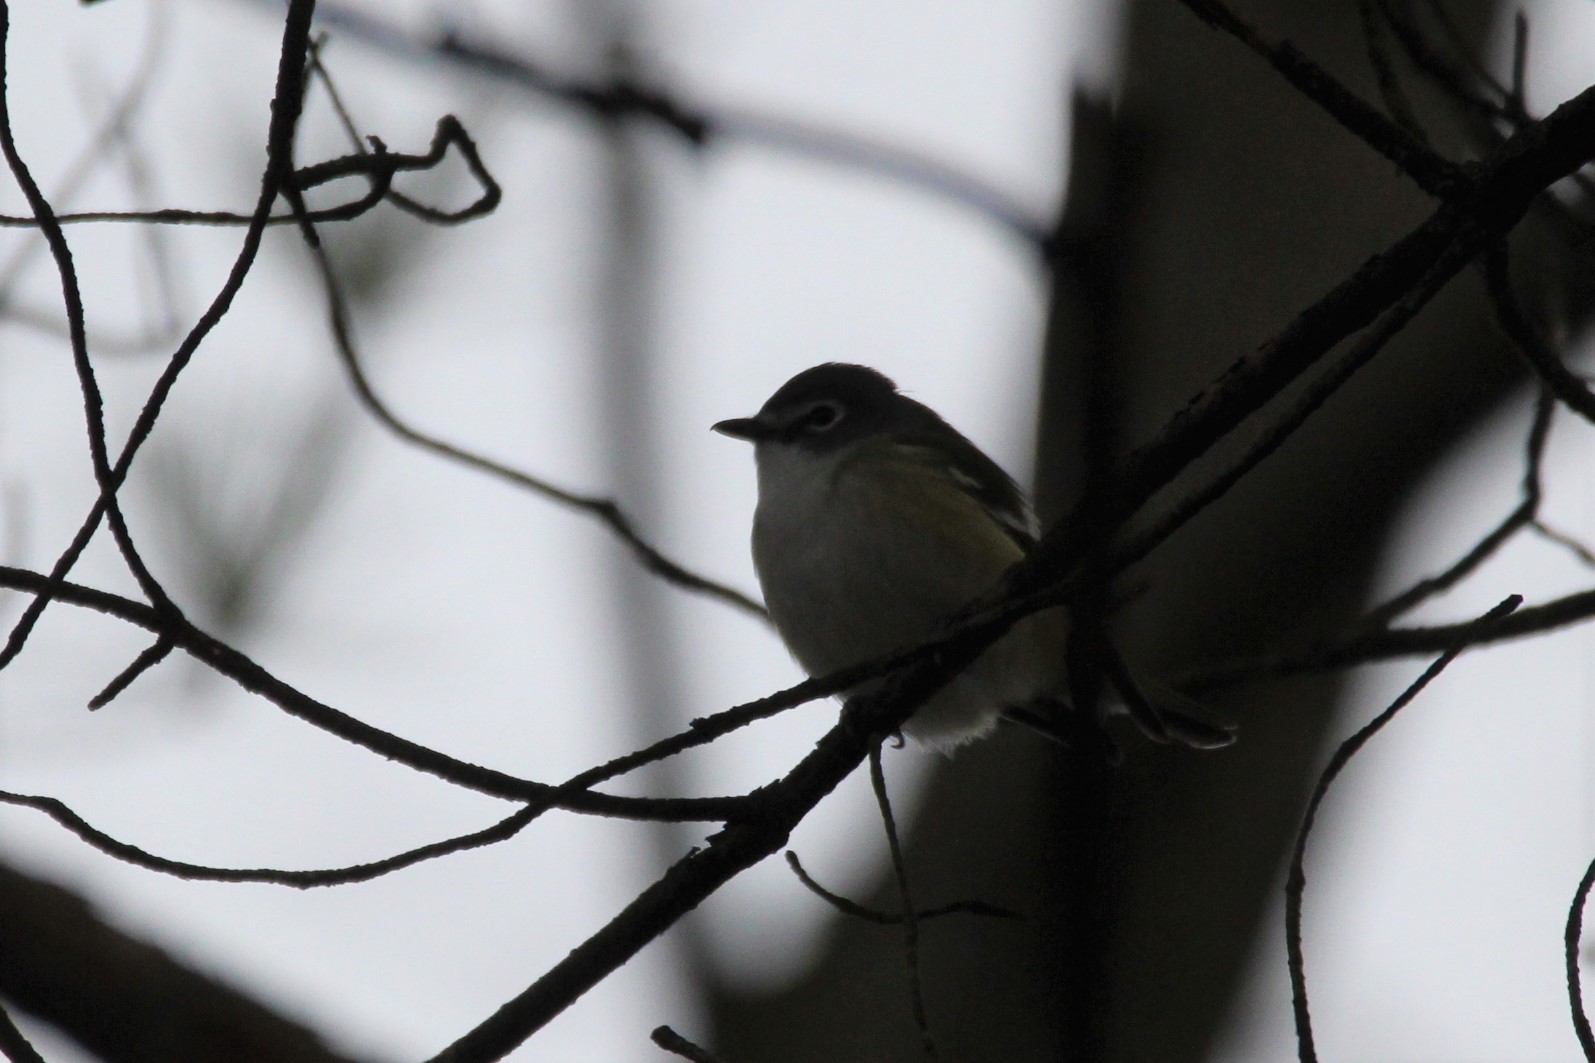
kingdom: Animalia
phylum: Chordata
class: Aves
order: Passeriformes
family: Vireonidae
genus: Vireo
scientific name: Vireo solitarius
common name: Blue-headed vireo
